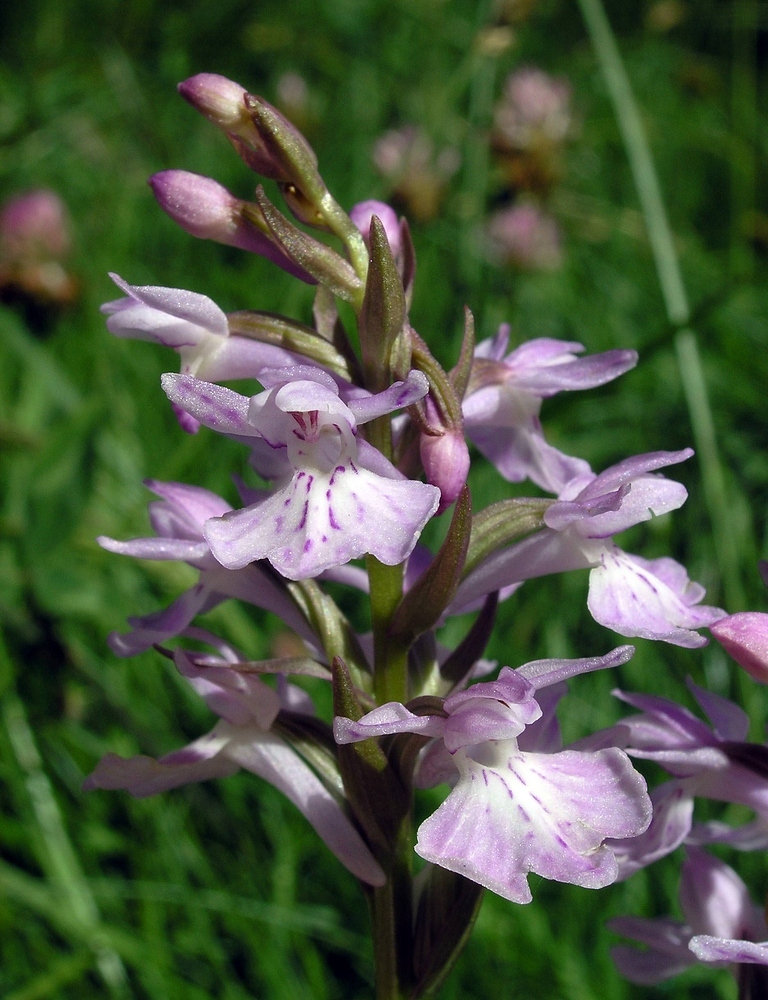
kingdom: Plantae
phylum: Tracheophyta
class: Liliopsida
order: Asparagales
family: Orchidaceae
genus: Dactylorhiza
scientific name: Dactylorhiza maculata
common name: Heath spotted-orchid
